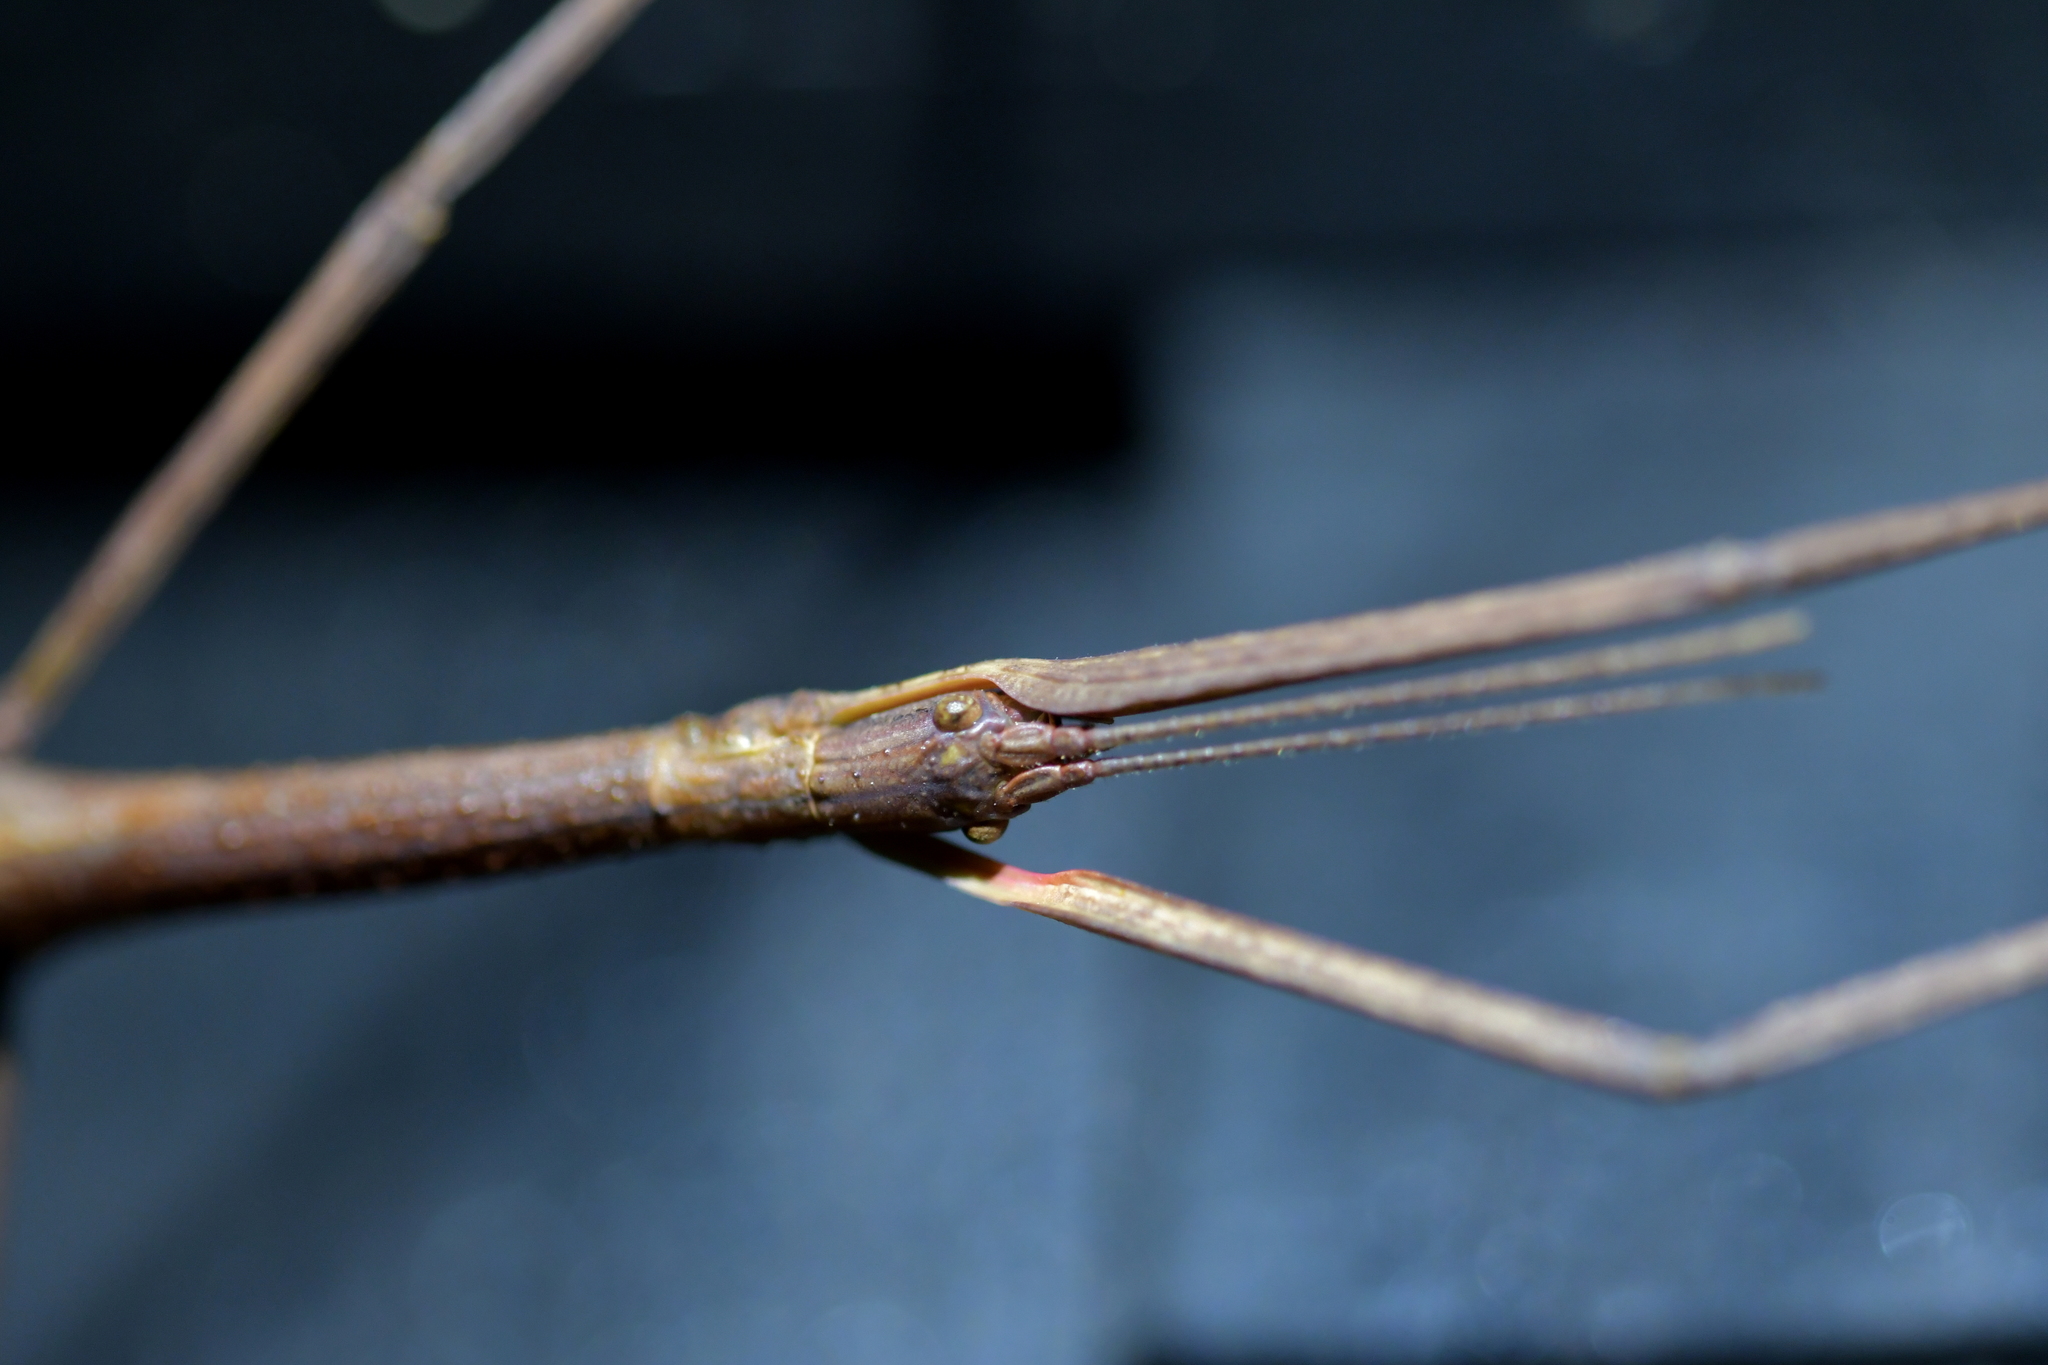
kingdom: Animalia
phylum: Arthropoda
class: Insecta
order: Phasmida
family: Phasmatidae
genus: Clitarchus
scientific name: Clitarchus hookeri
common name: Smooth stick insect
